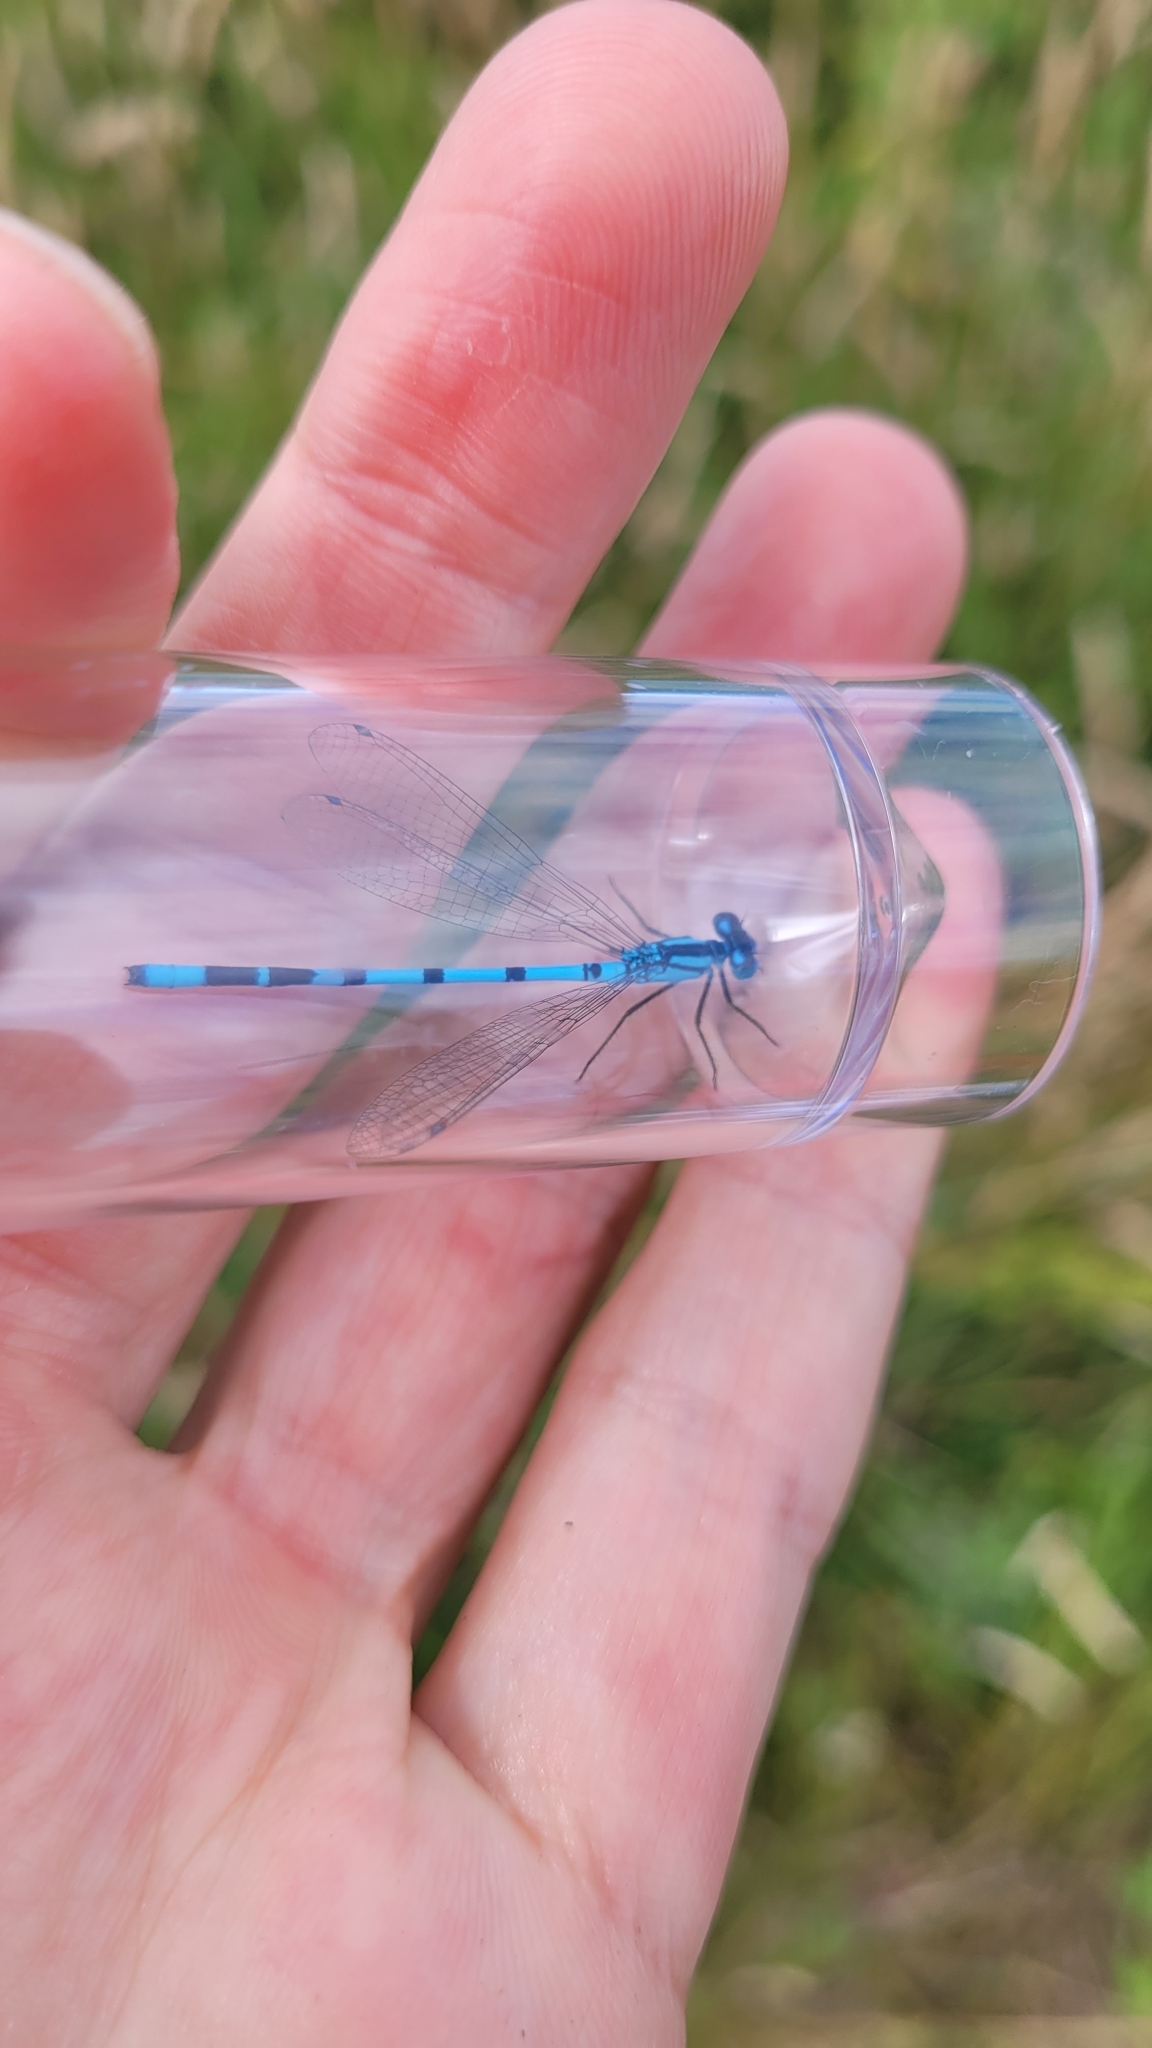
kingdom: Animalia
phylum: Arthropoda
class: Insecta
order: Odonata
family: Coenagrionidae
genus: Enallagma
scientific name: Enallagma cyathigerum
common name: Common blue damselfly
